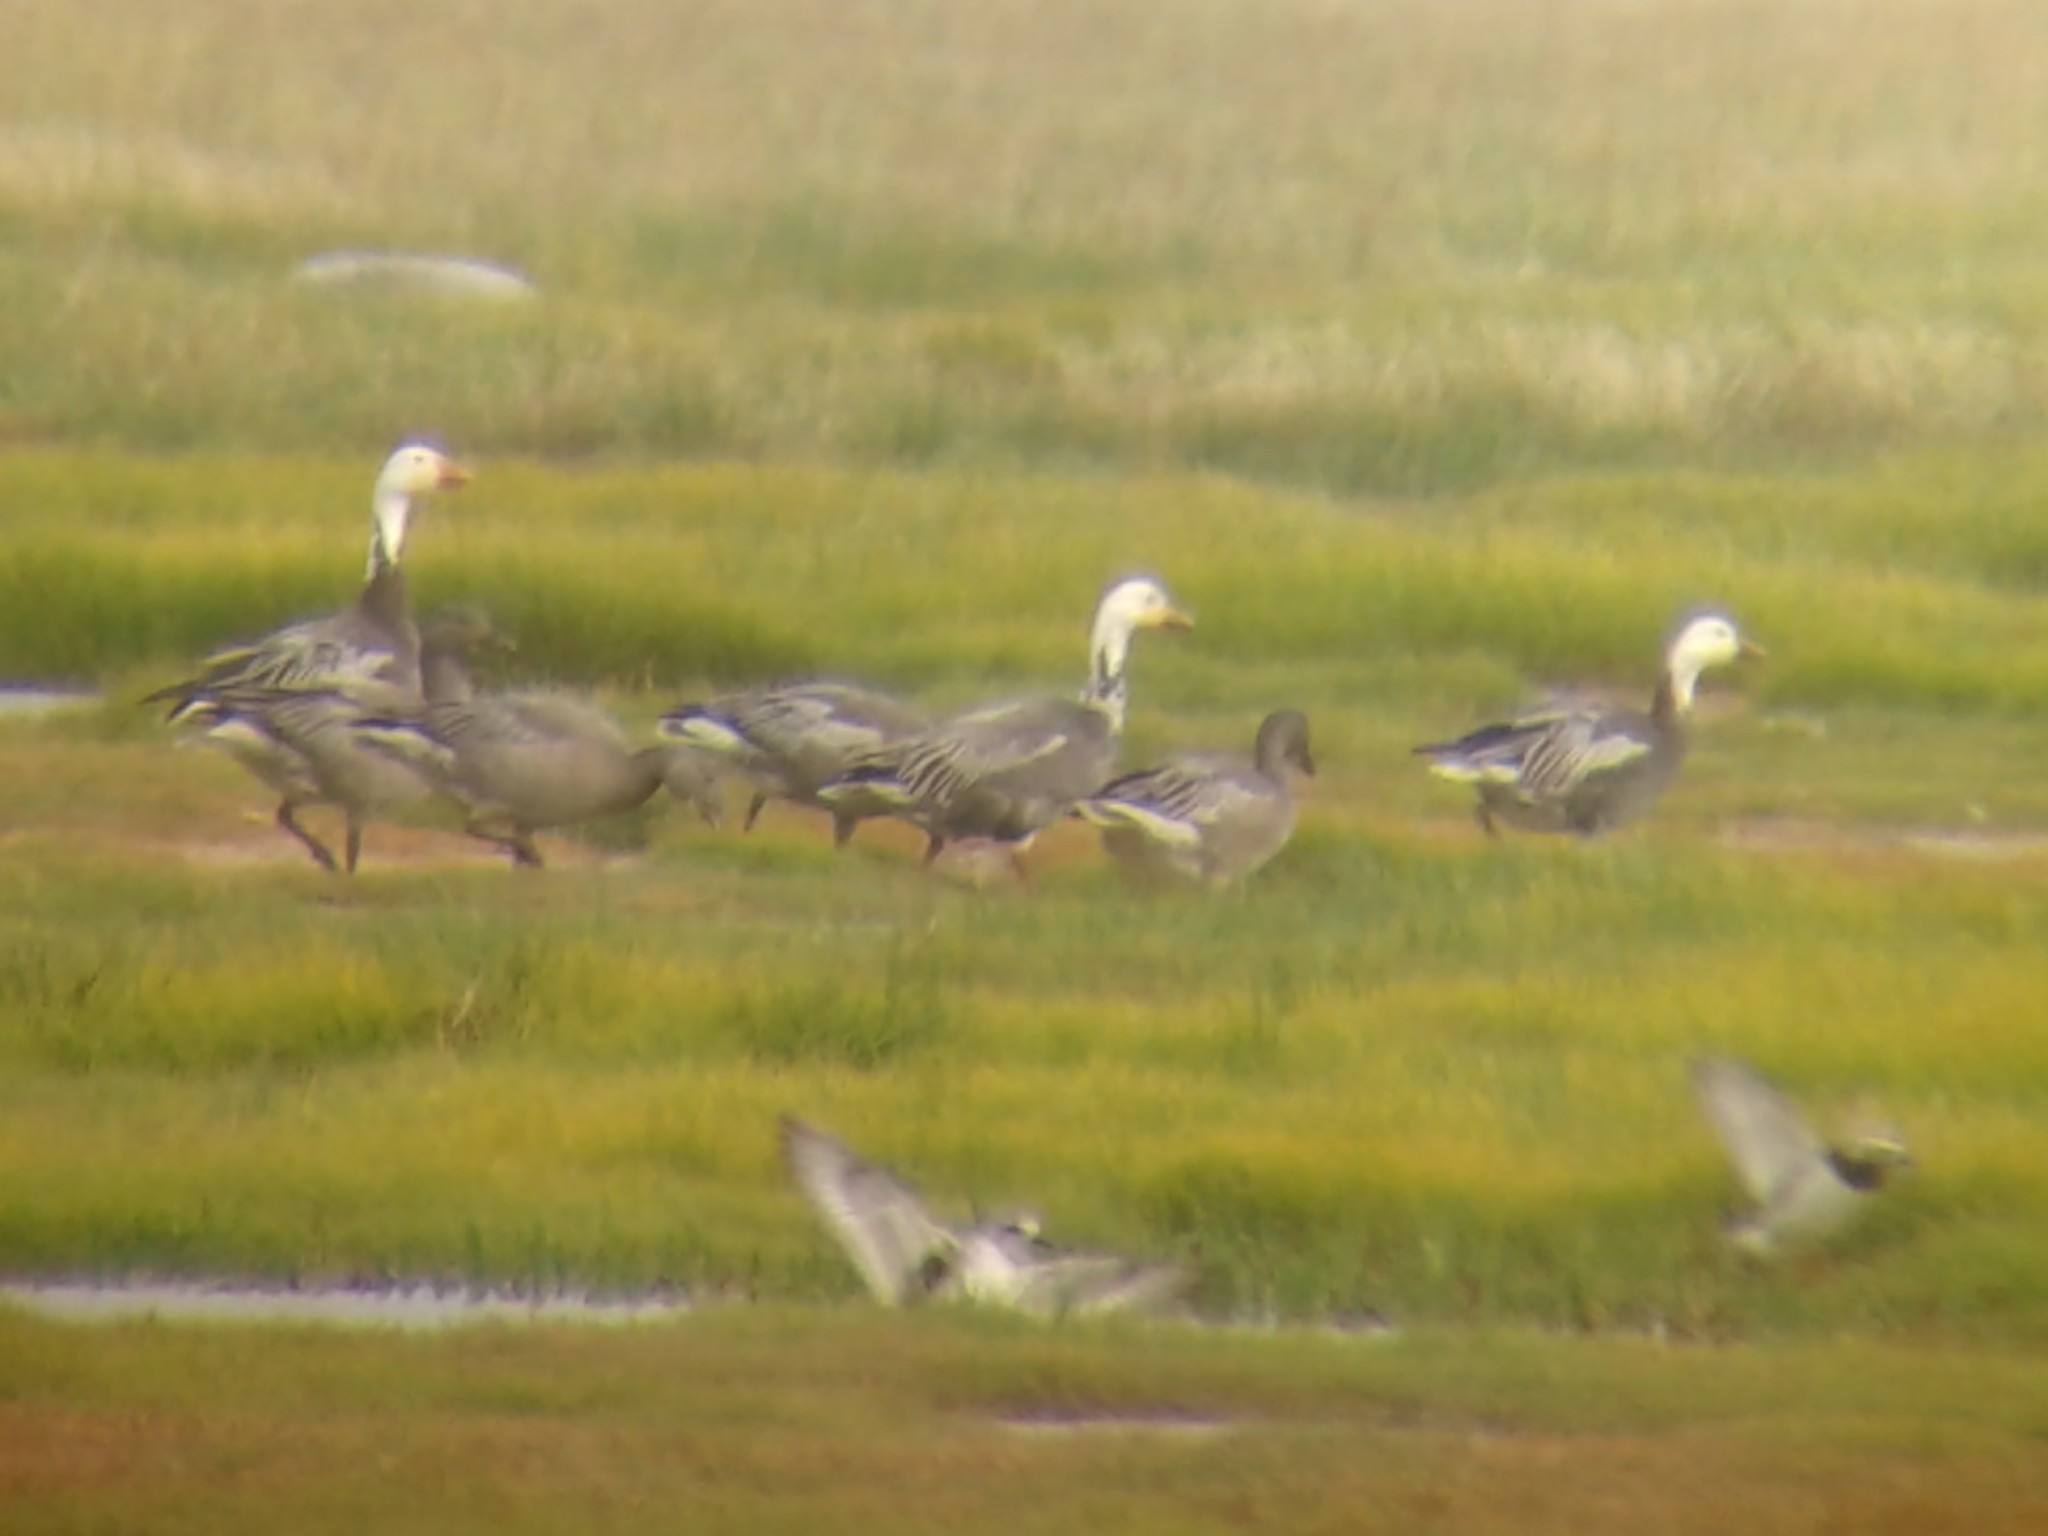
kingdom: Animalia
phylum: Chordata
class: Aves
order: Anseriformes
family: Anatidae
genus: Anser
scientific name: Anser caerulescens
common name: Snow goose
